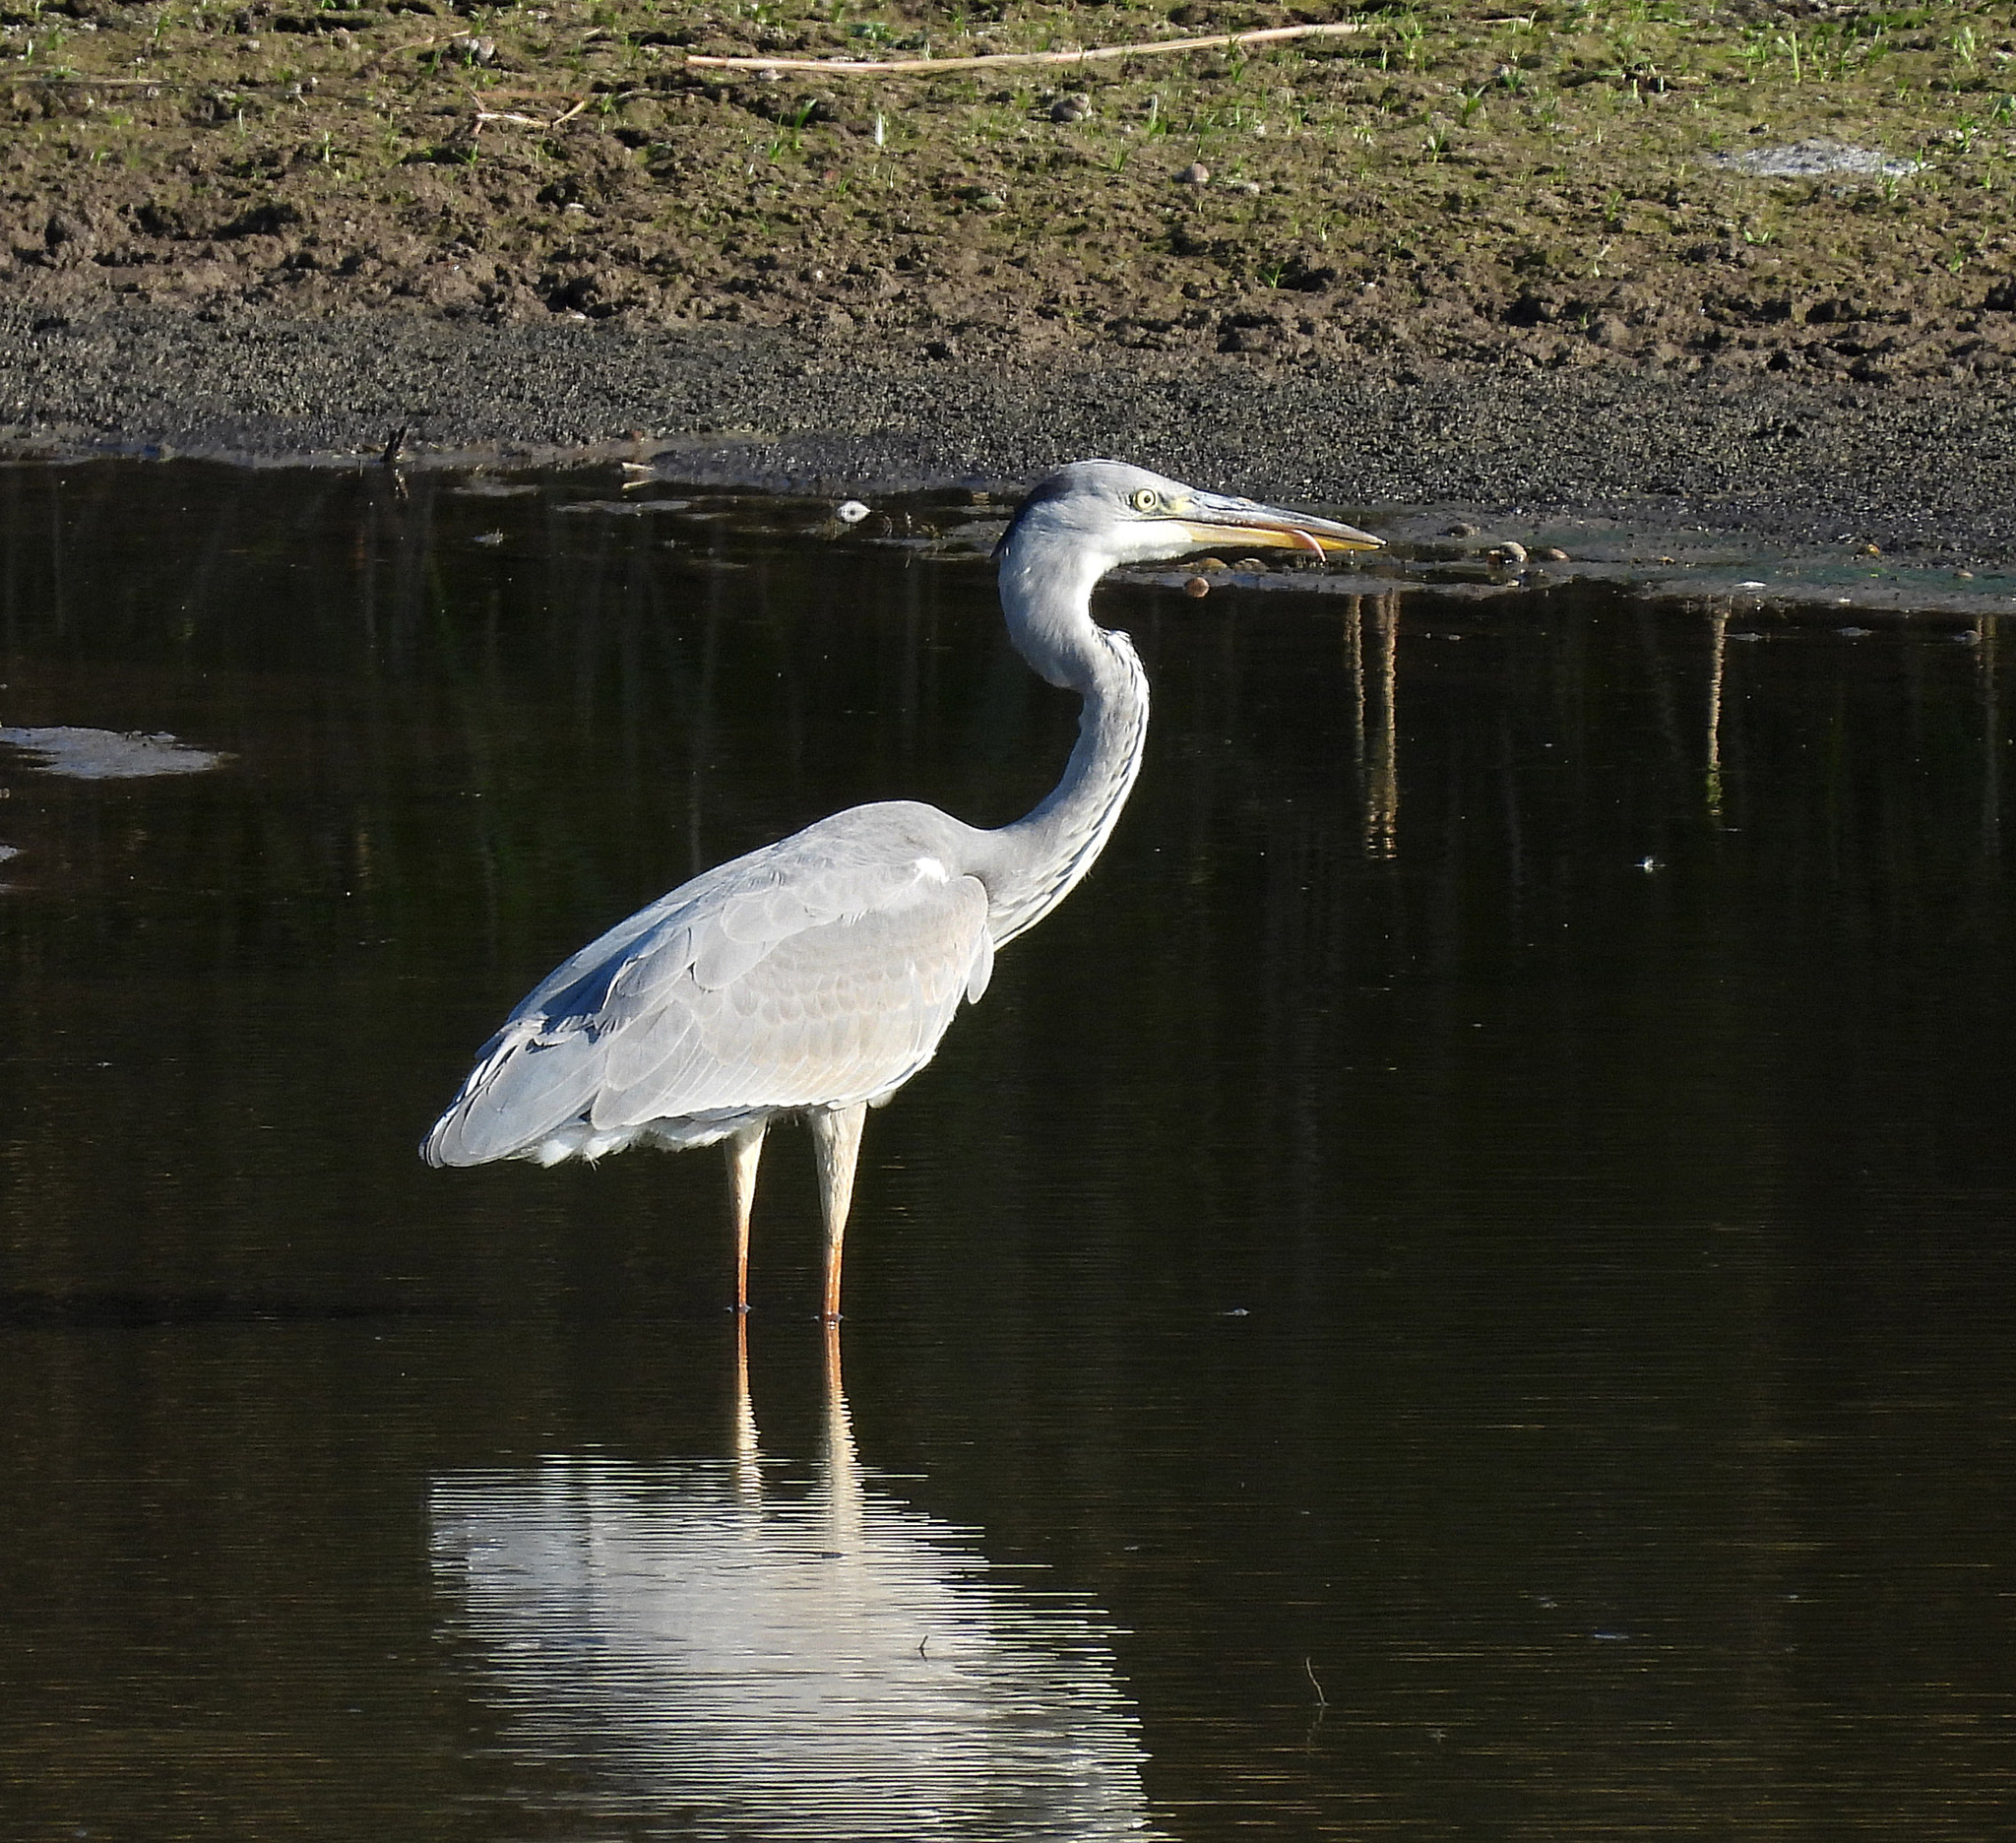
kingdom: Animalia
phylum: Chordata
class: Aves
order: Pelecaniformes
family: Ardeidae
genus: Ardea
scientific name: Ardea cinerea
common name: Grey heron
